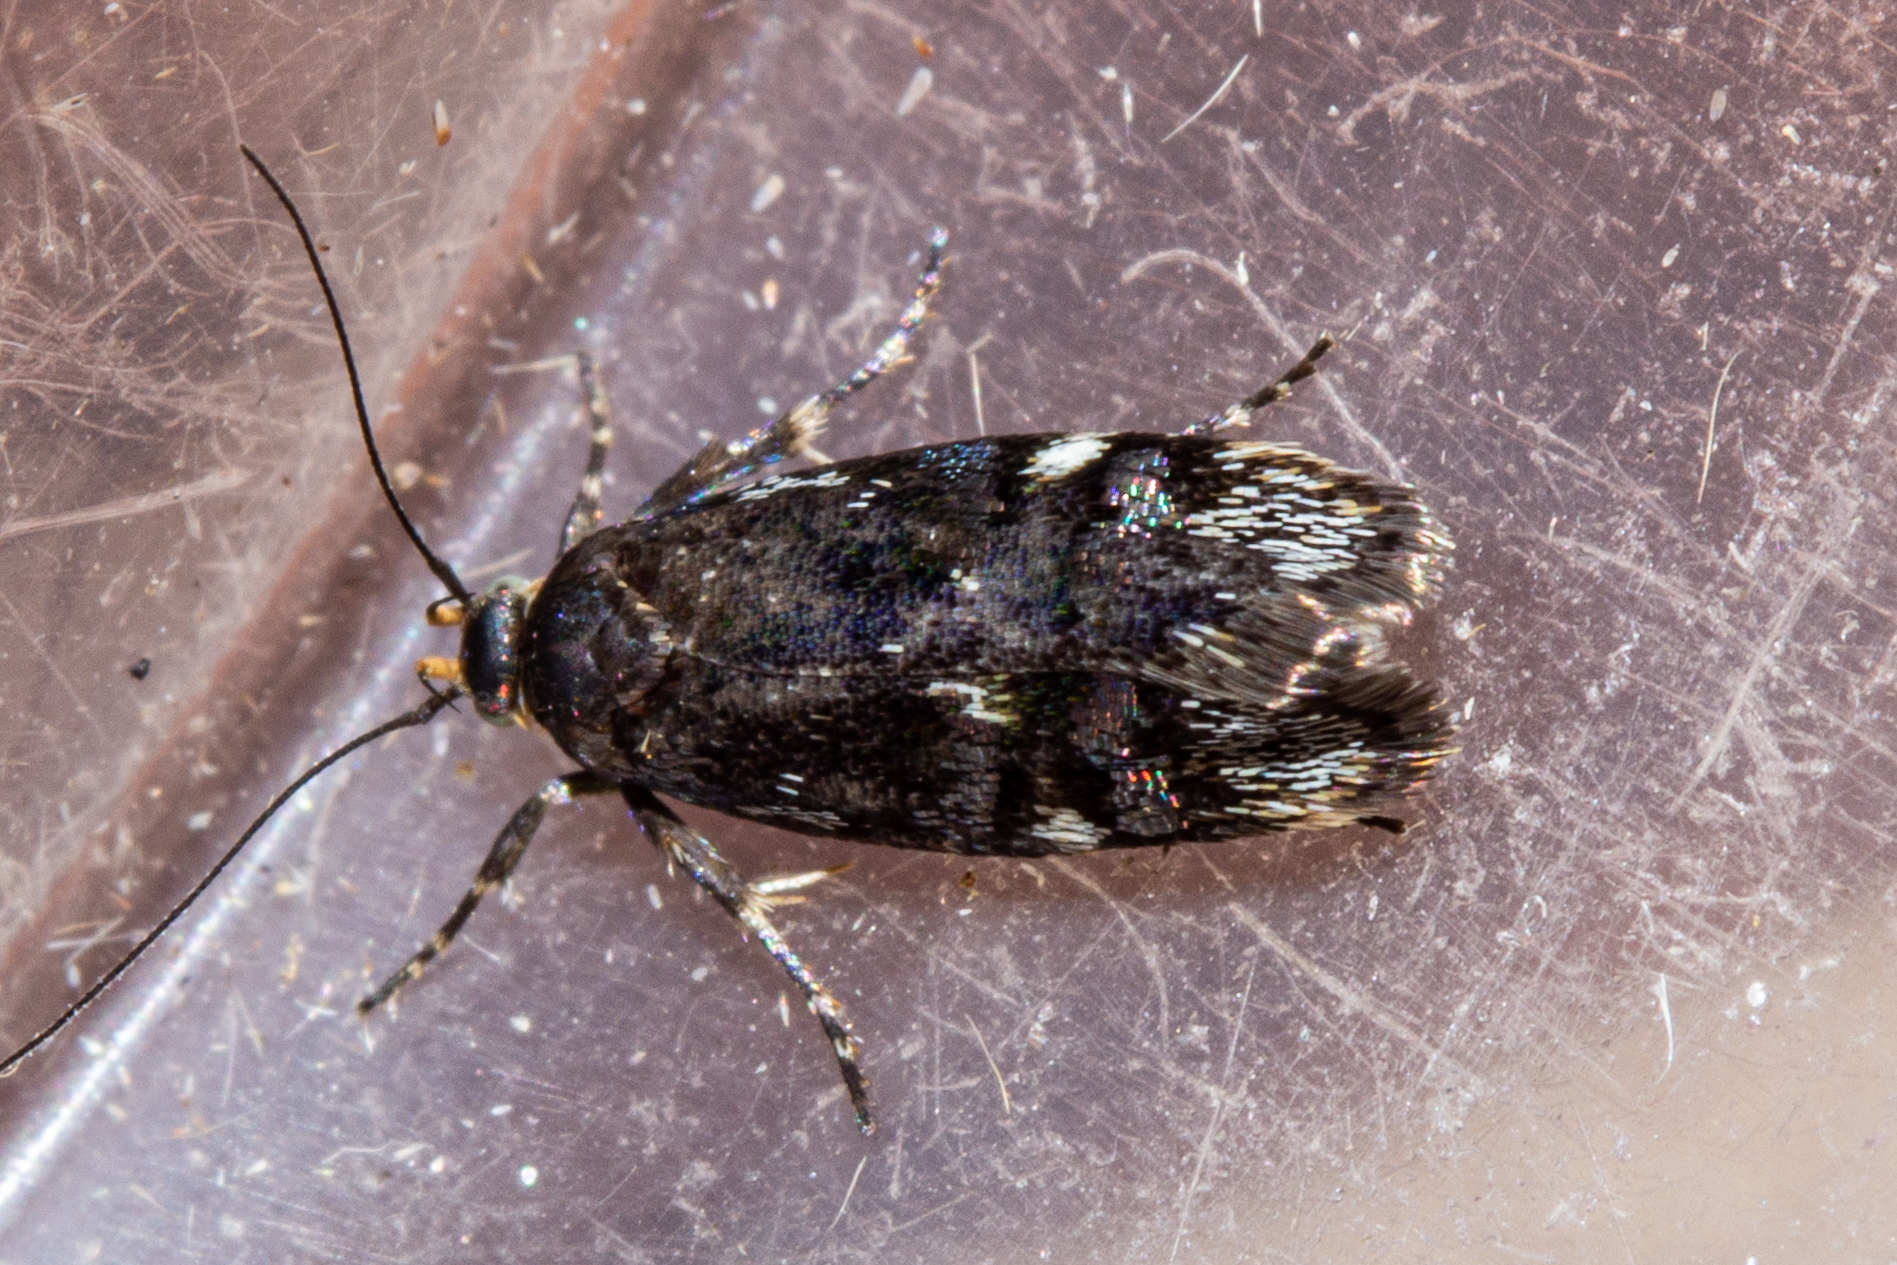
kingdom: Animalia
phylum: Arthropoda
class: Insecta
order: Lepidoptera
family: Oecophoridae
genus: Hierodoris
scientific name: Hierodoris frigida
